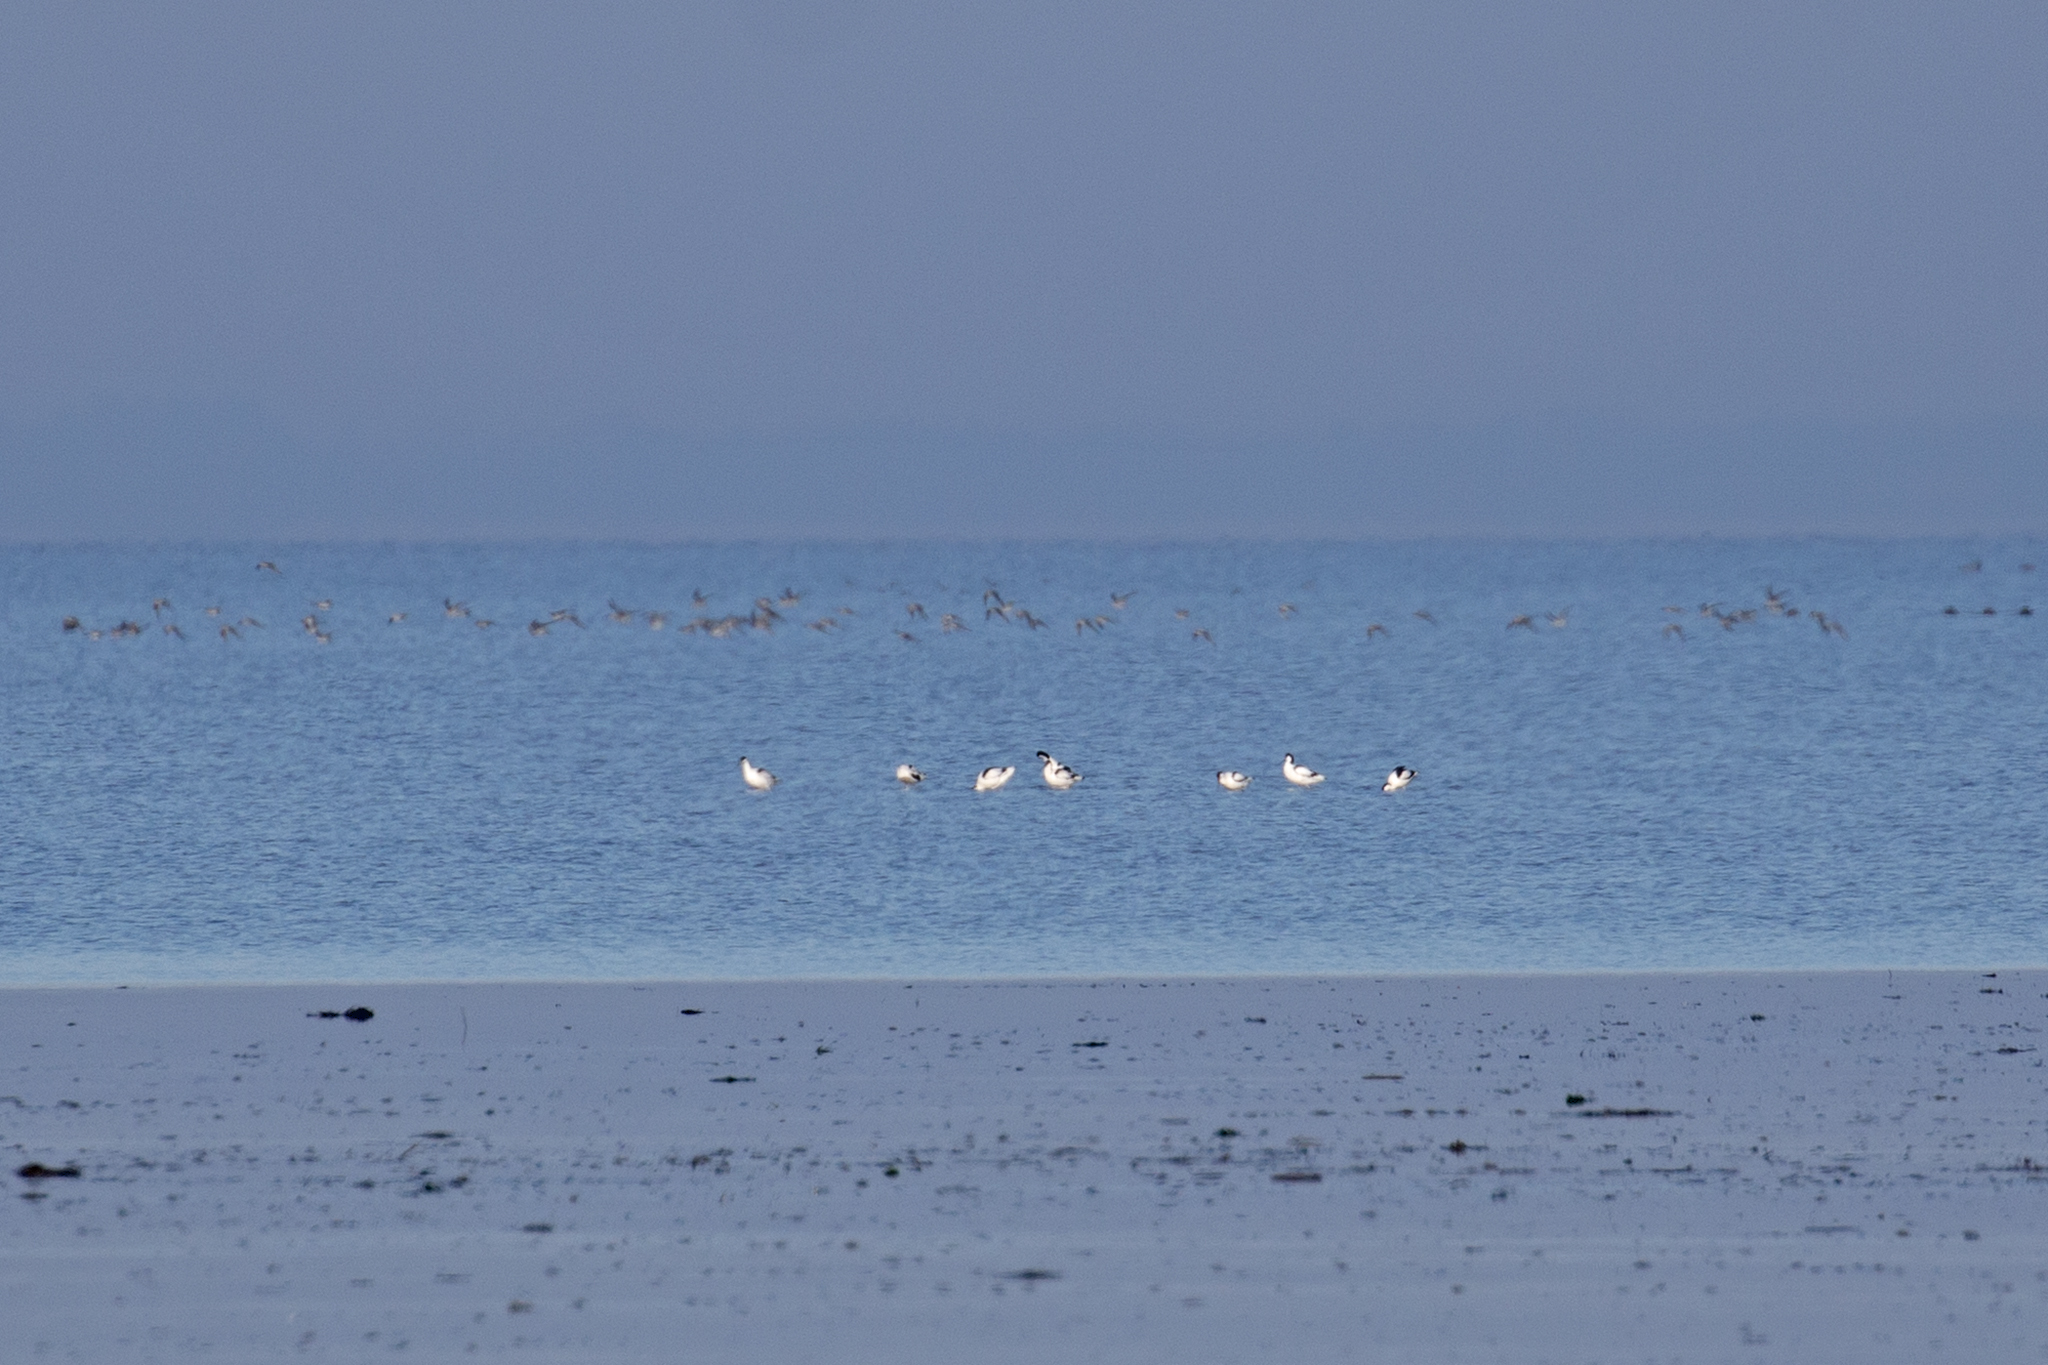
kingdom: Animalia
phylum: Chordata
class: Aves
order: Charadriiformes
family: Recurvirostridae
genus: Recurvirostra
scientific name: Recurvirostra avosetta
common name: Pied avocet
